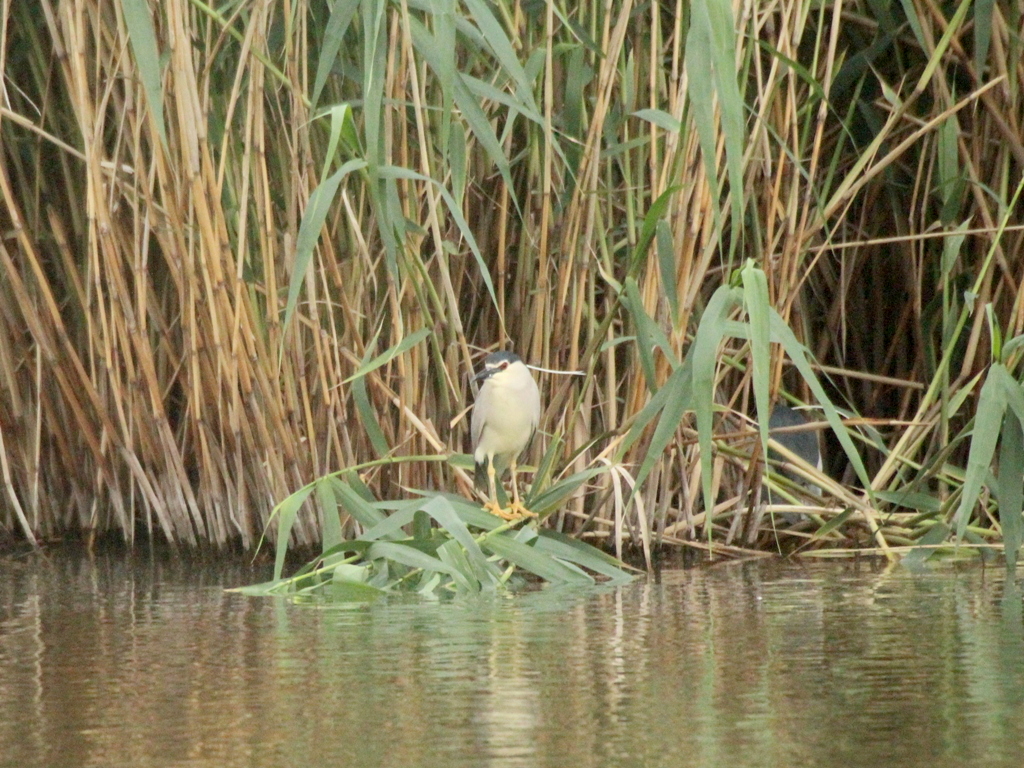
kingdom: Animalia
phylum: Chordata
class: Aves
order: Pelecaniformes
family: Ardeidae
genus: Nycticorax
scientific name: Nycticorax nycticorax
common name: Black-crowned night heron
